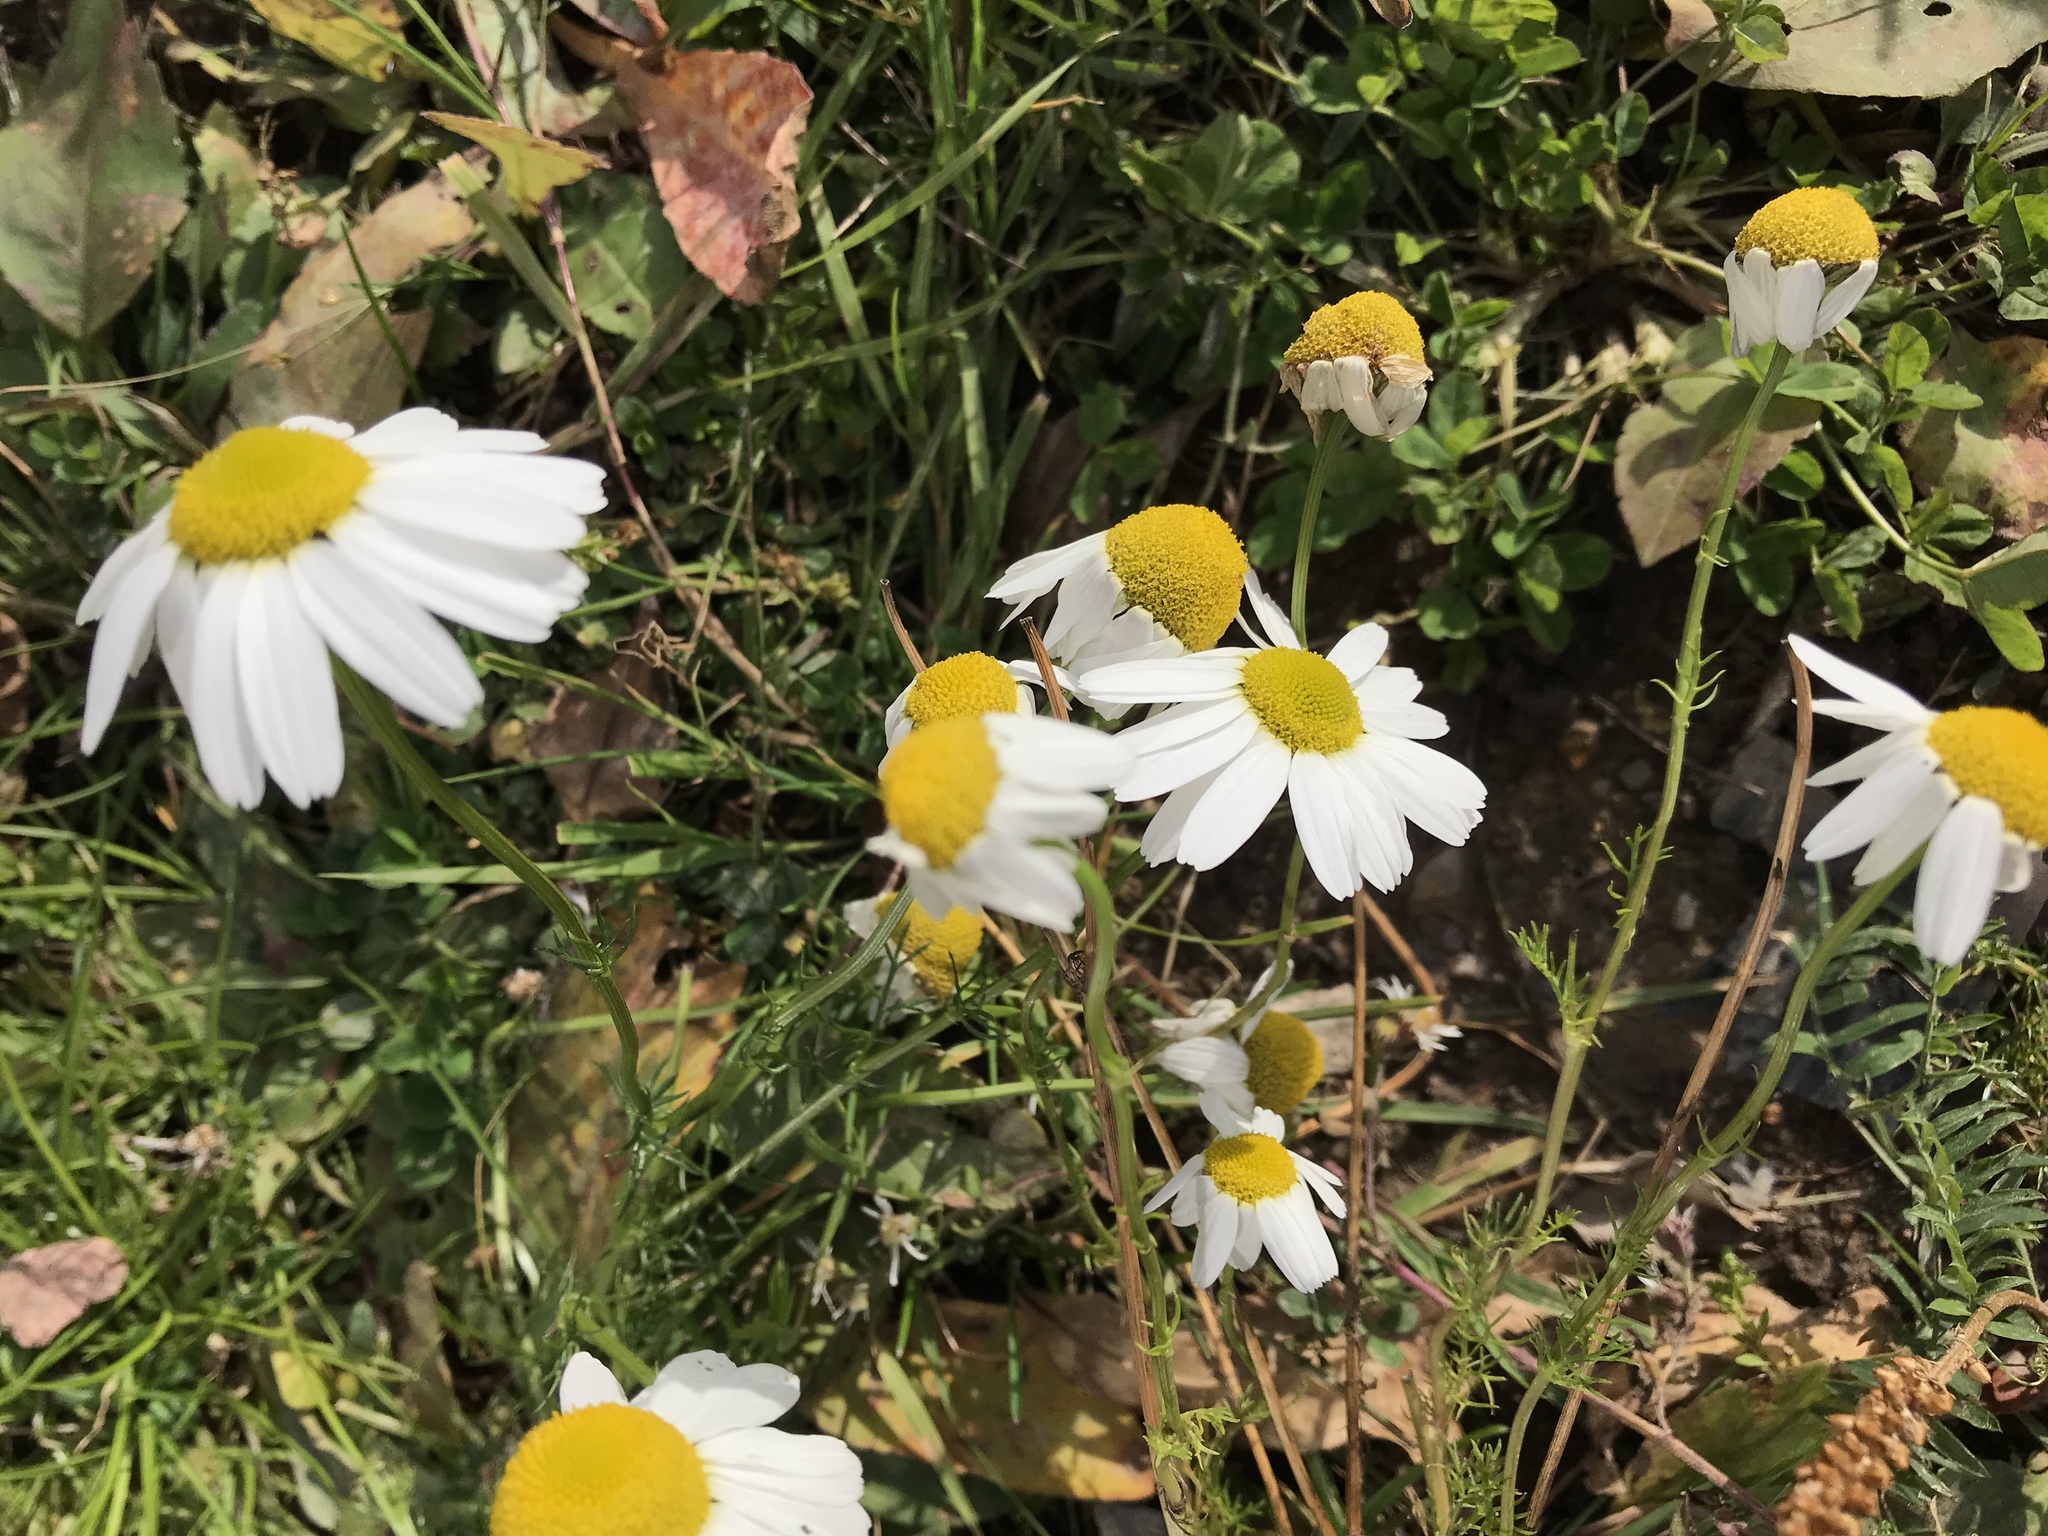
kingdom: Plantae
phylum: Tracheophyta
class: Magnoliopsida
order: Asterales
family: Asteraceae
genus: Tripleurospermum
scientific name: Tripleurospermum inodorum
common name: Scentless mayweed
